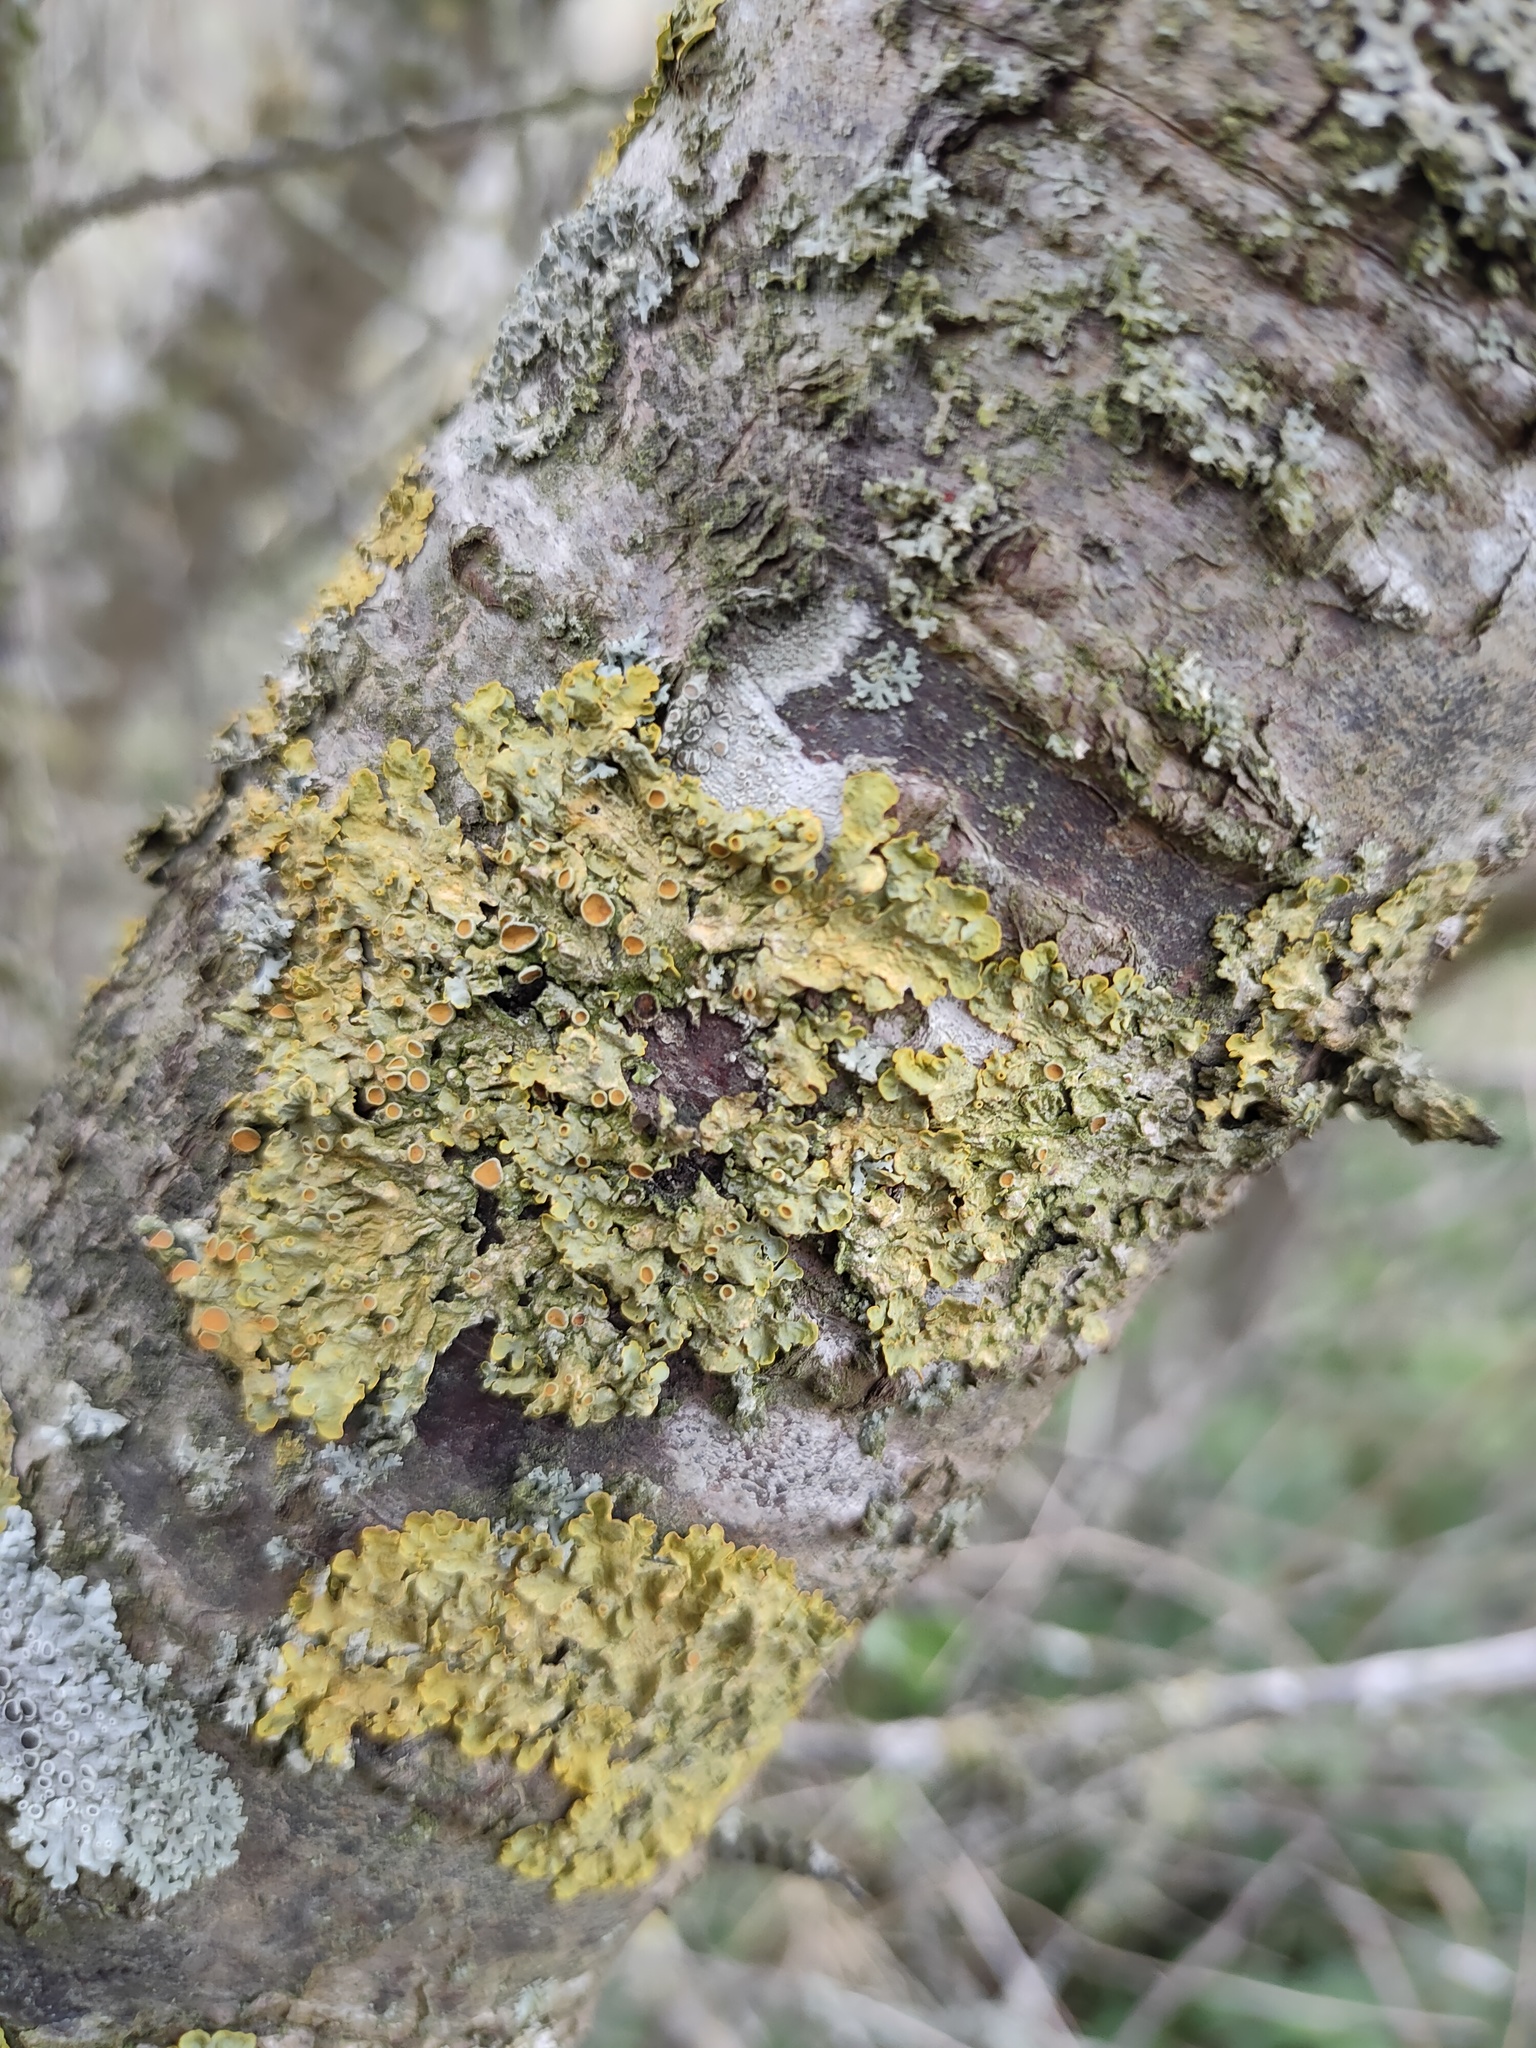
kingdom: Fungi
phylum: Ascomycota
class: Lecanoromycetes
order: Teloschistales
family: Teloschistaceae
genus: Xanthoria
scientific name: Xanthoria parietina
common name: Common orange lichen
